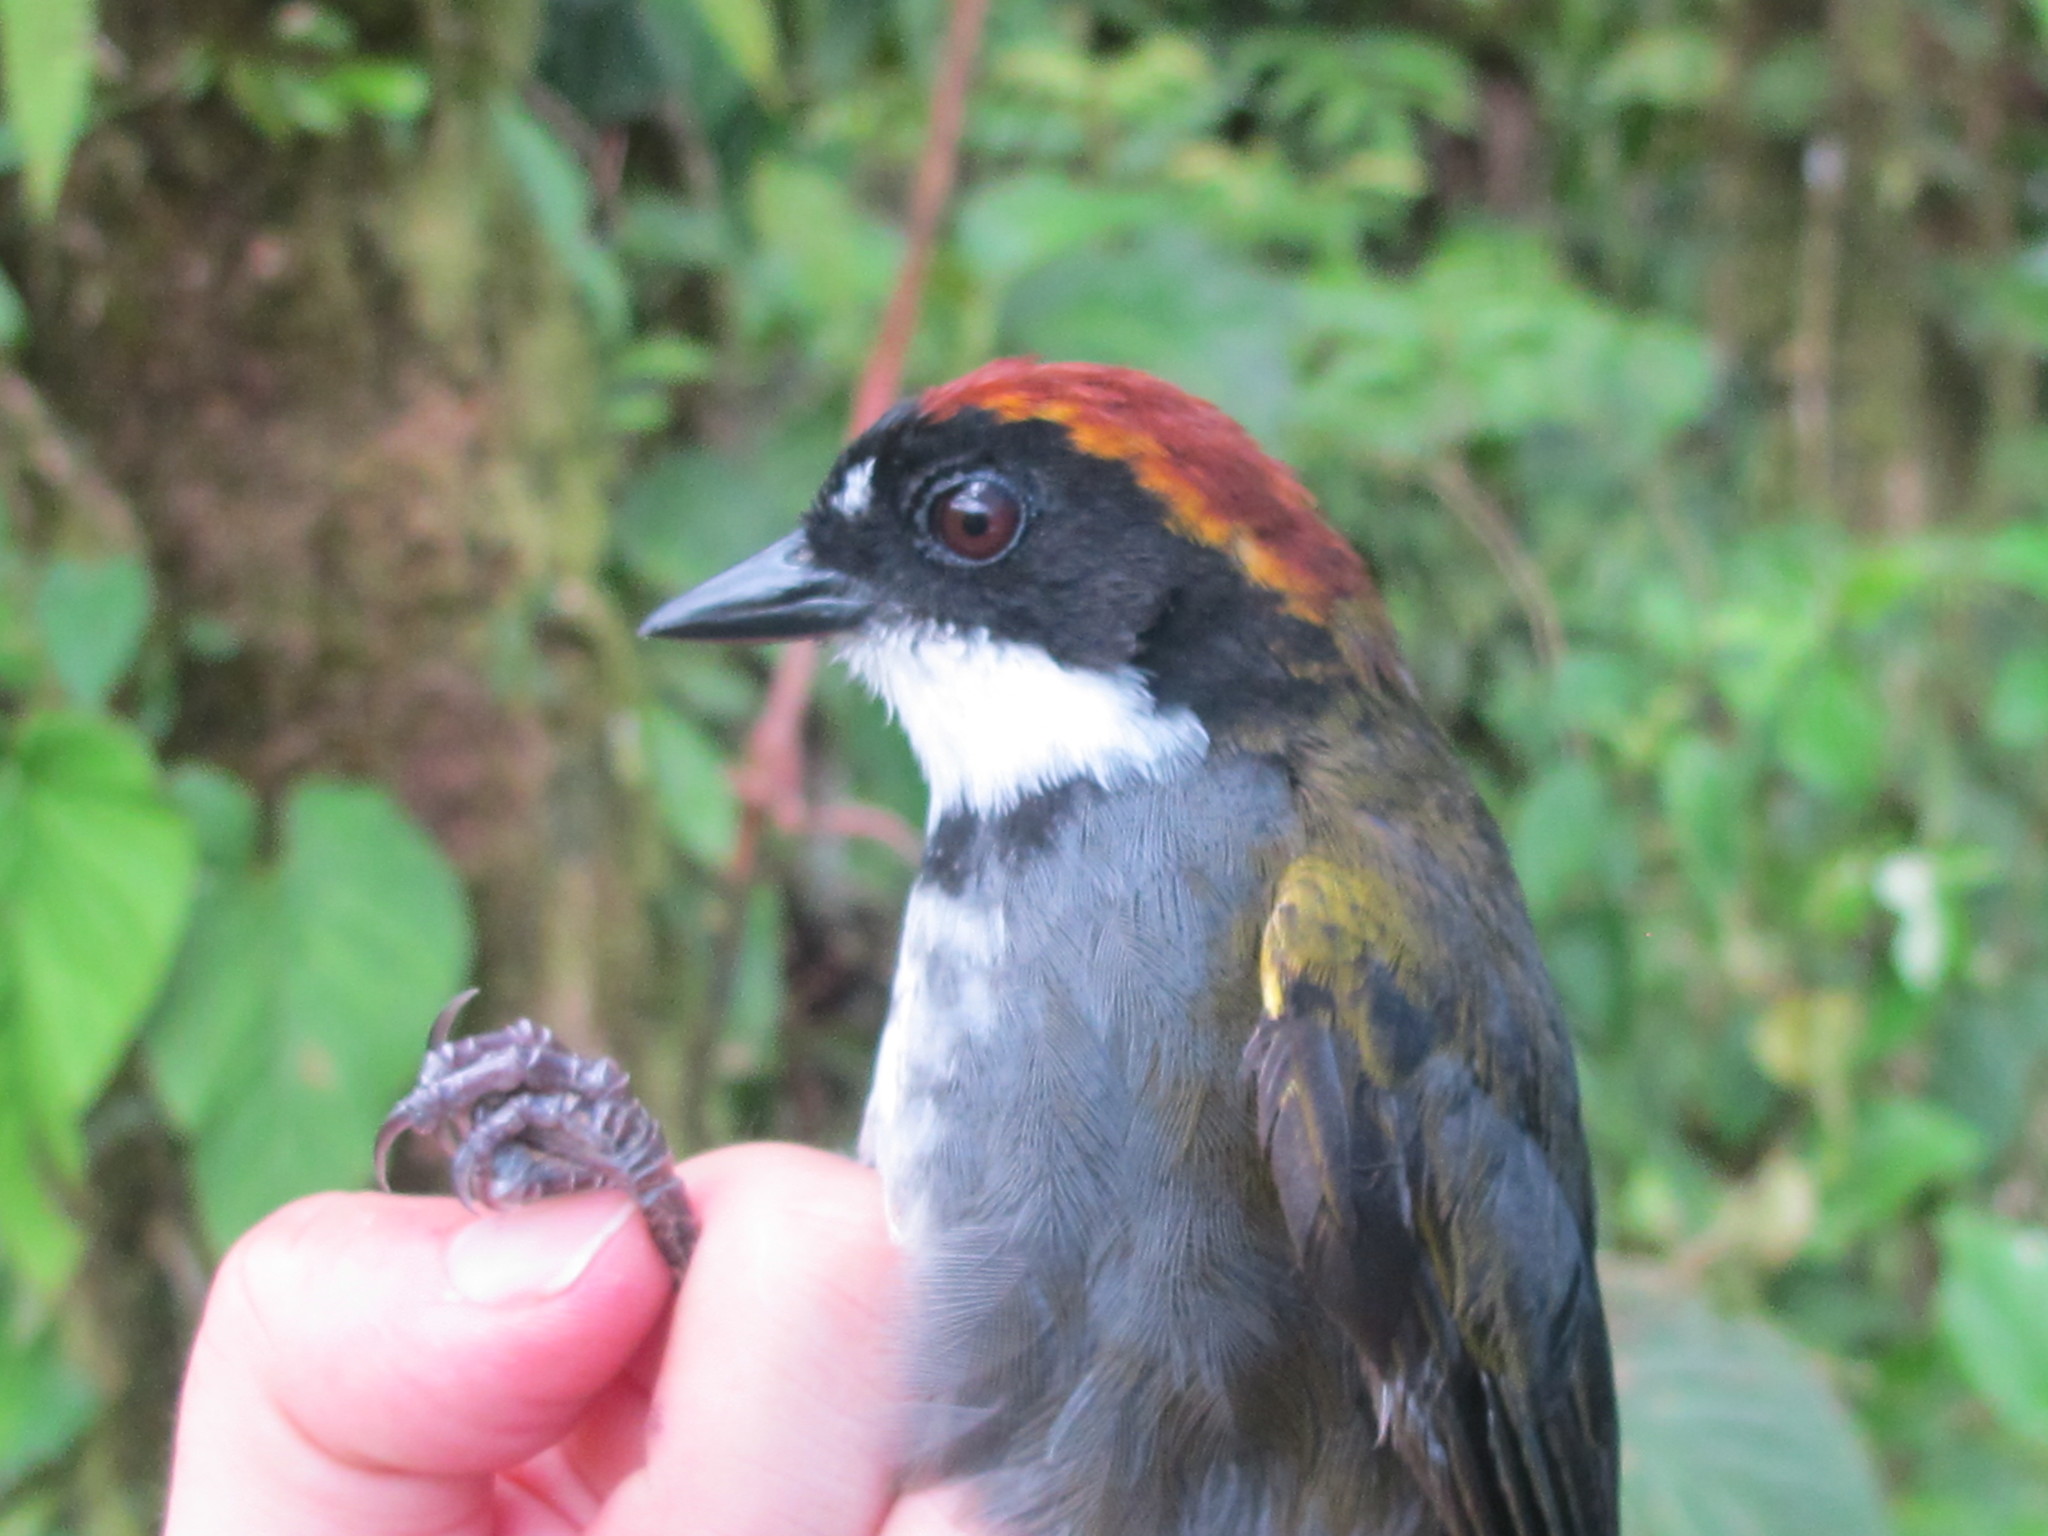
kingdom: Animalia
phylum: Chordata
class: Aves
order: Passeriformes
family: Passerellidae
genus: Arremon
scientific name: Arremon brunneinucha
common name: Chestnut-capped brushfinch
